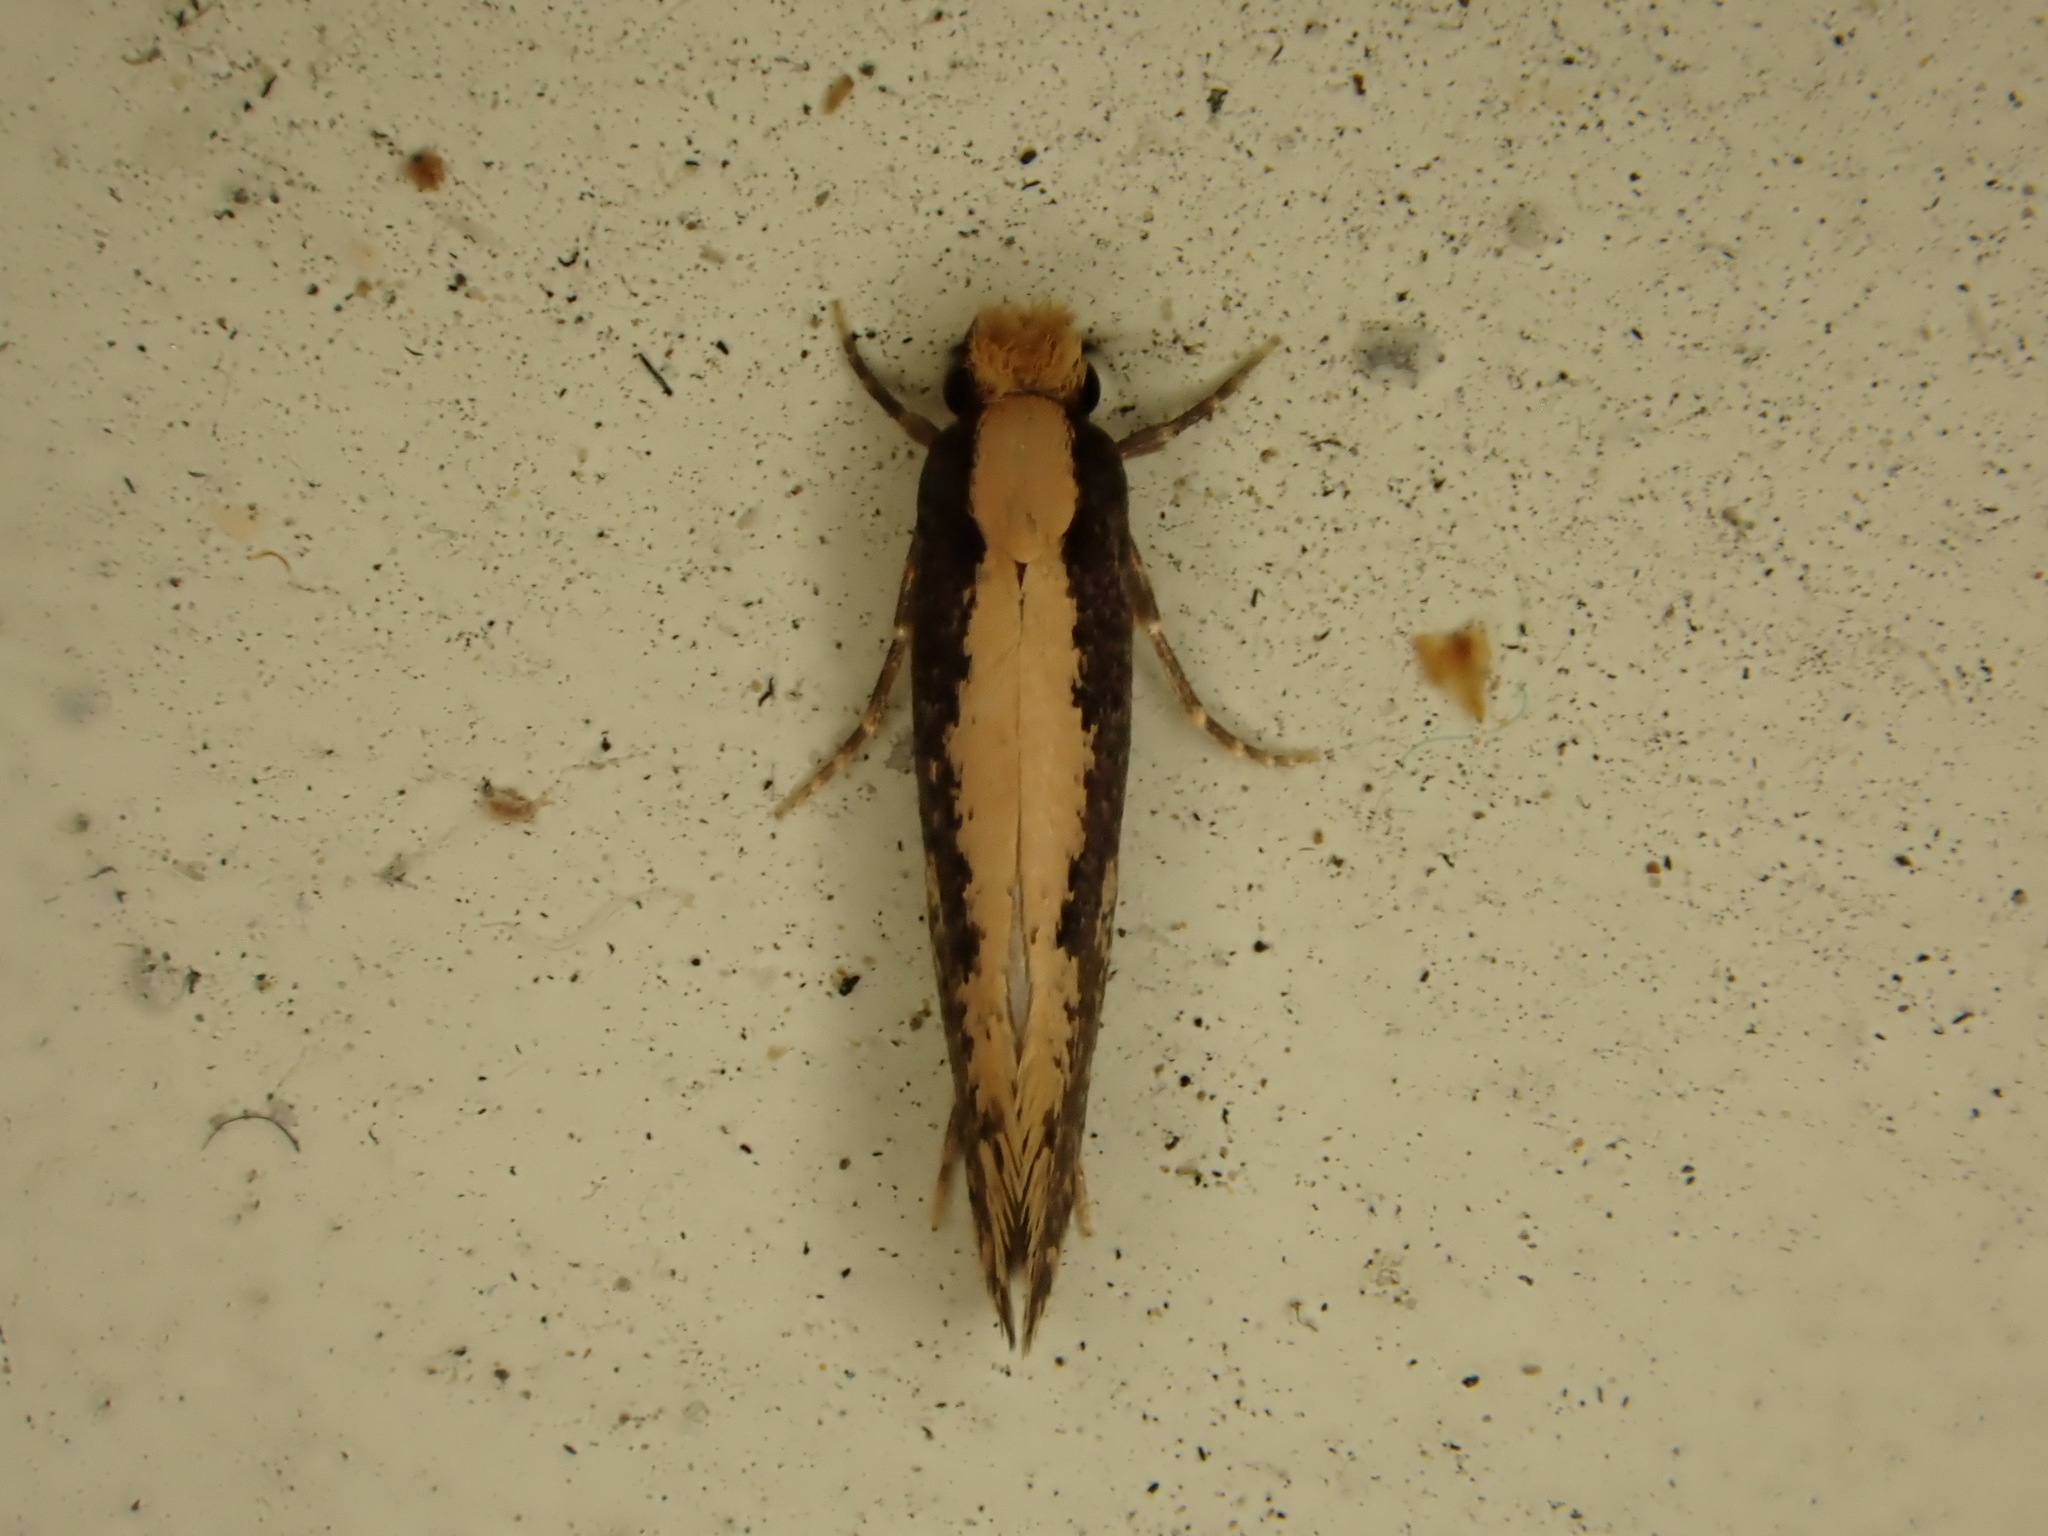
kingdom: Animalia
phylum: Arthropoda
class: Insecta
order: Lepidoptera
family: Tineidae
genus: Monopis
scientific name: Monopis crocicapitella
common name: Moth
